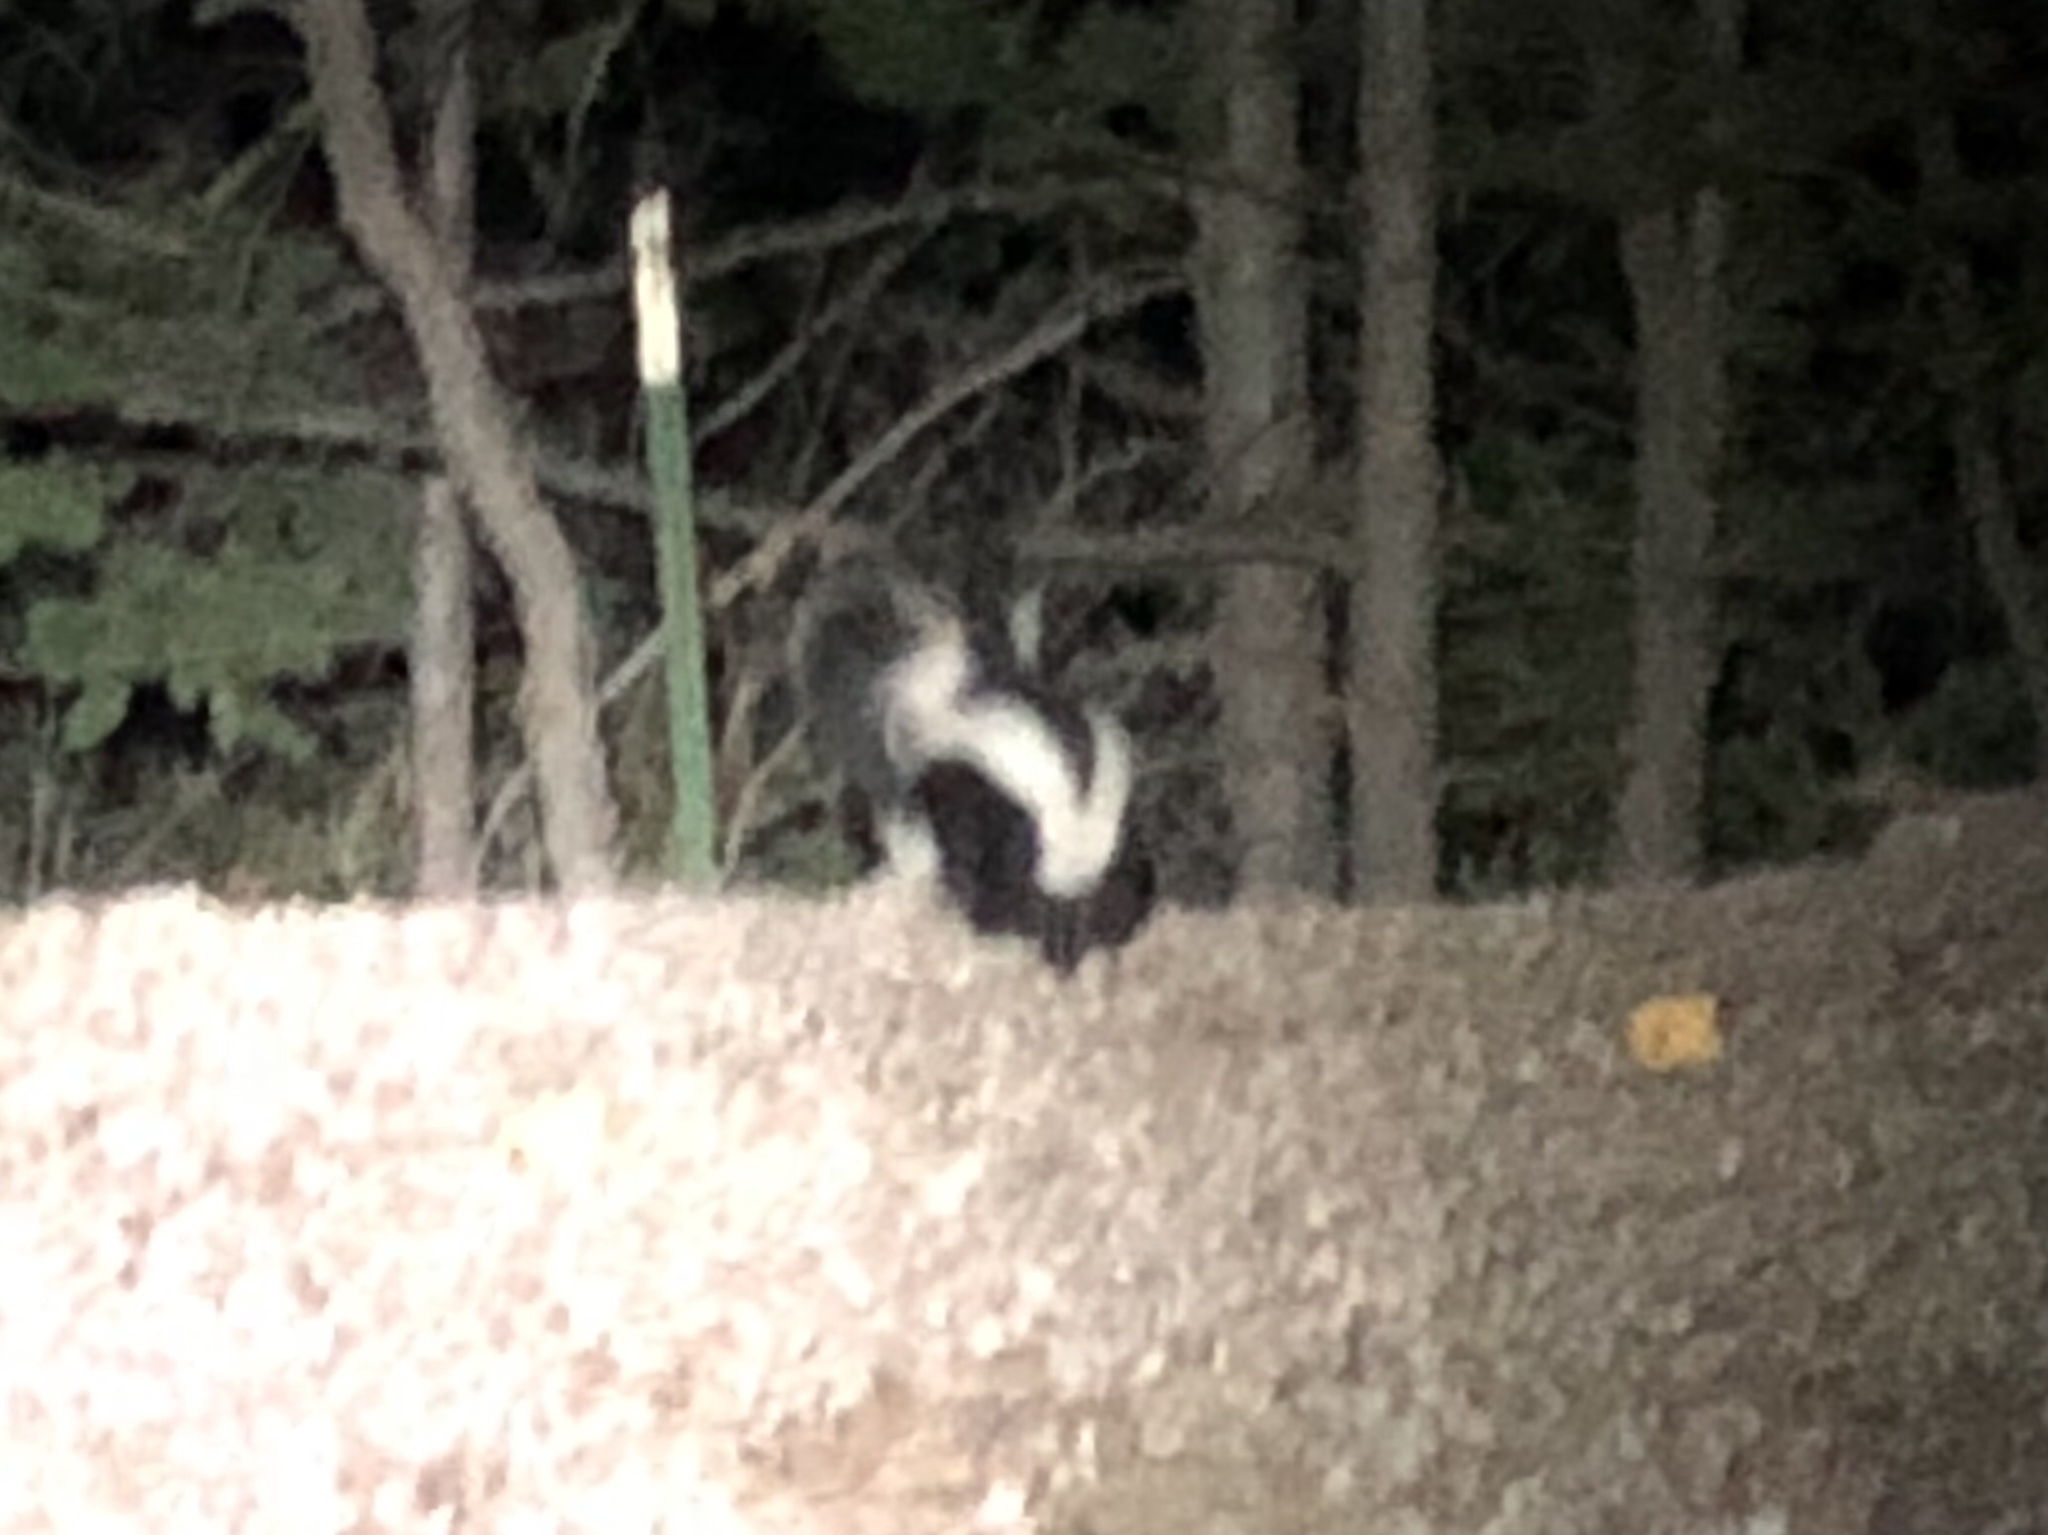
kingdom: Animalia
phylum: Chordata
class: Mammalia
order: Carnivora
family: Mephitidae
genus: Mephitis
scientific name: Mephitis mephitis
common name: Striped skunk
